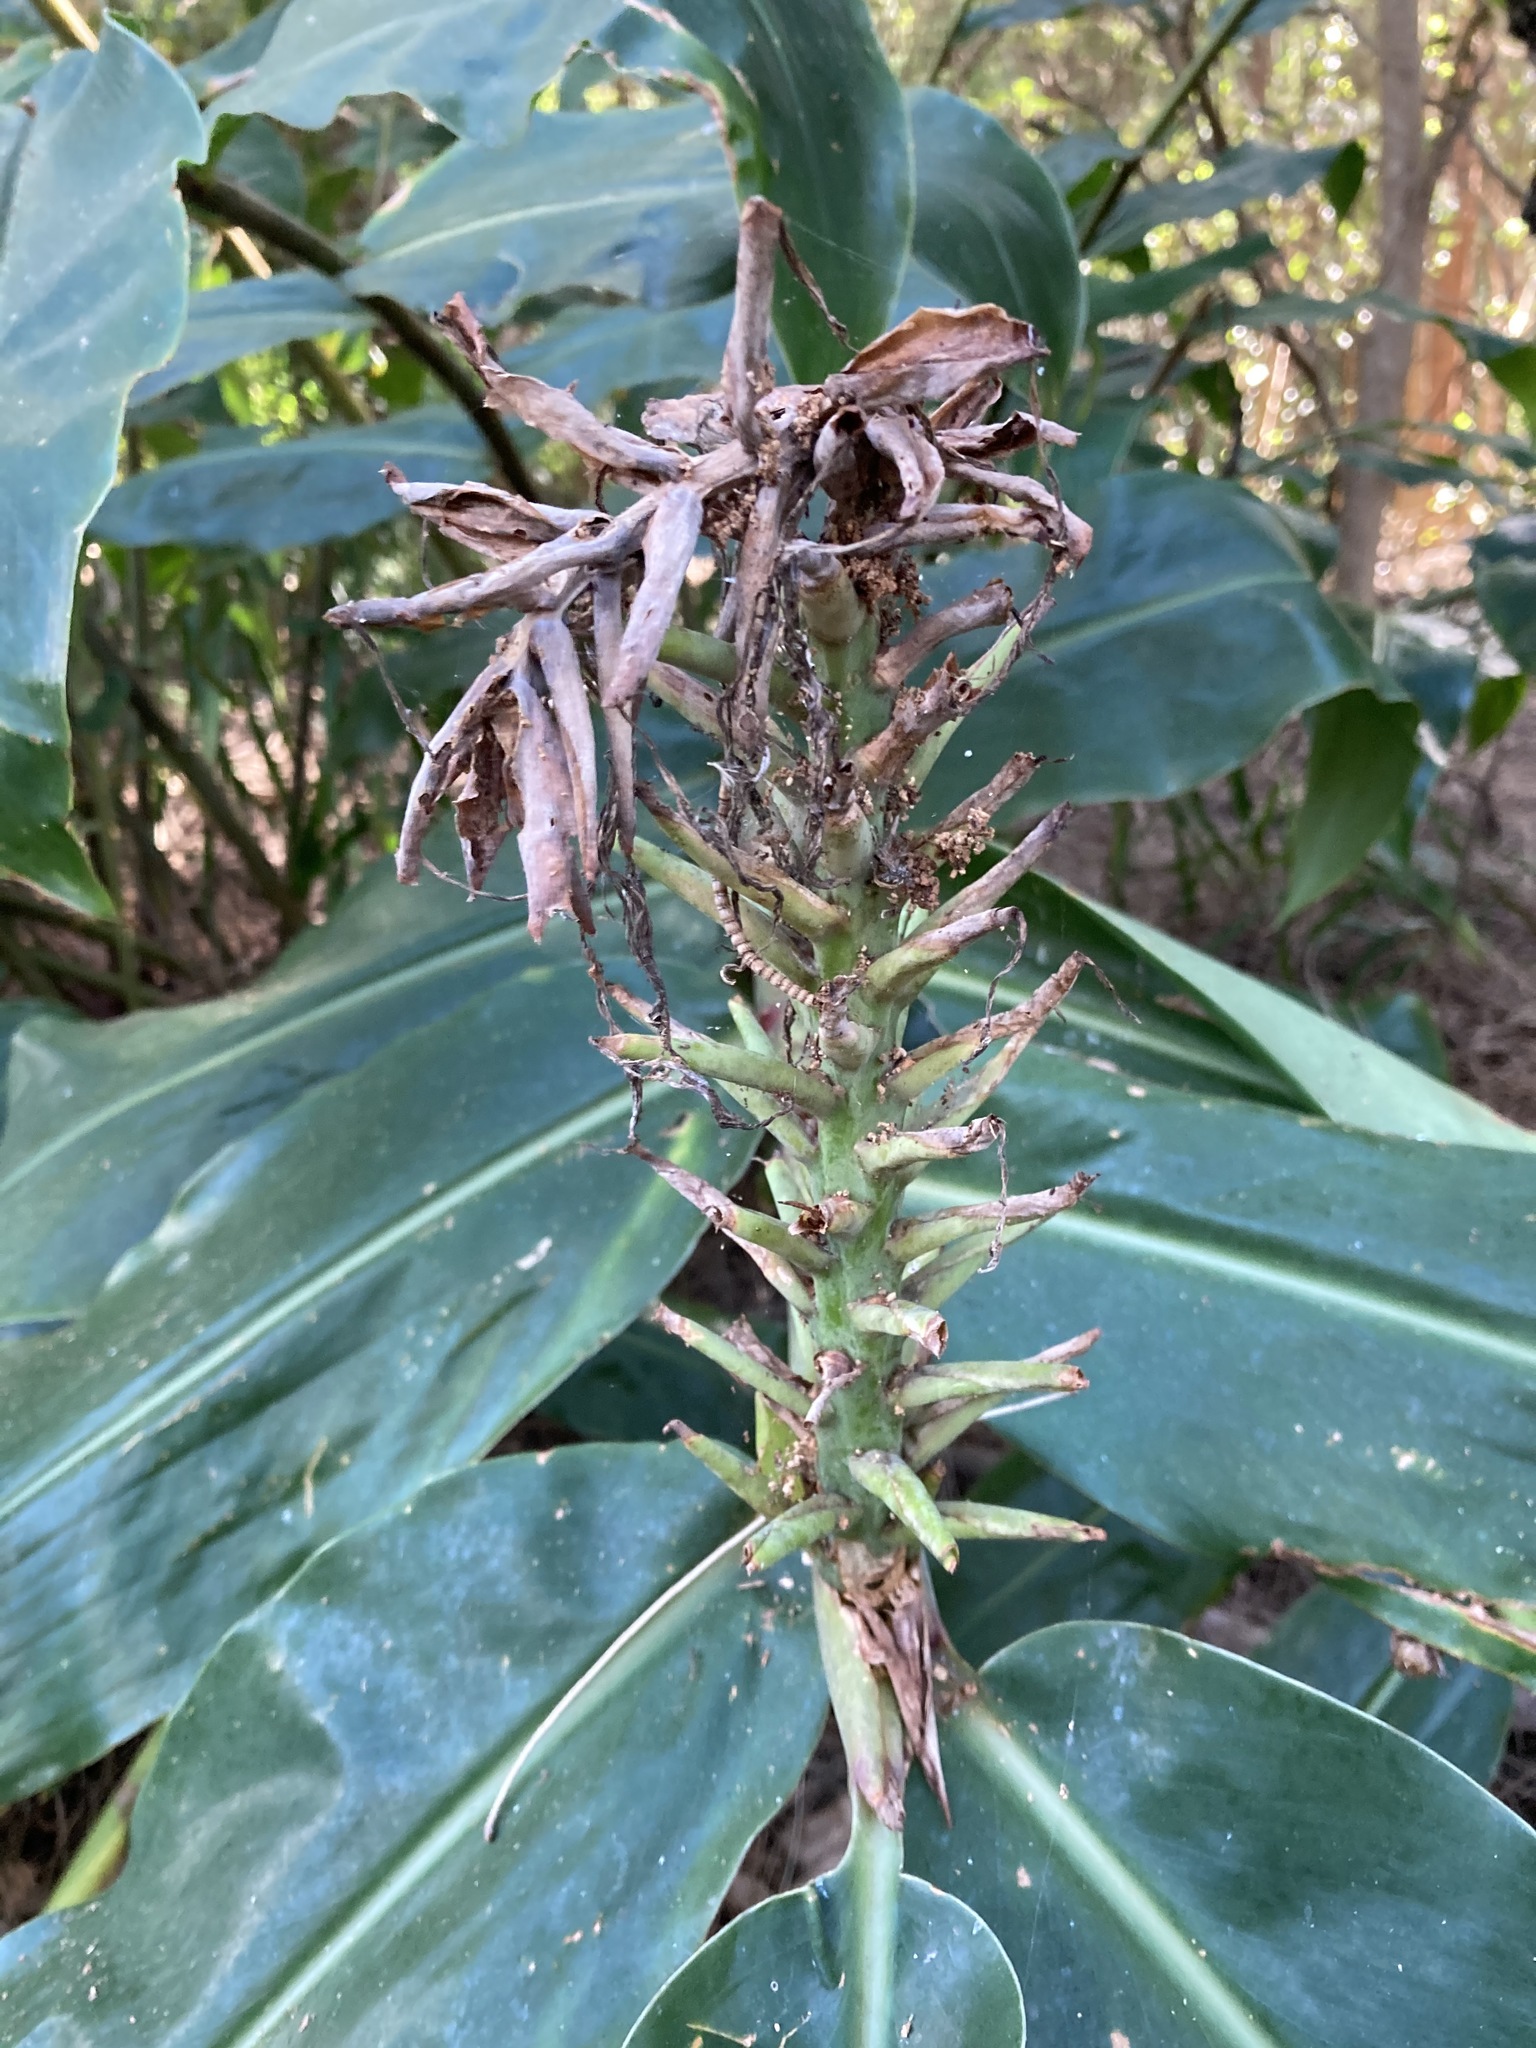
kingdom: Plantae
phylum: Tracheophyta
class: Liliopsida
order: Zingiberales
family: Zingiberaceae
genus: Hedychium
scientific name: Hedychium gardnerianum
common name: Himalayan ginger
